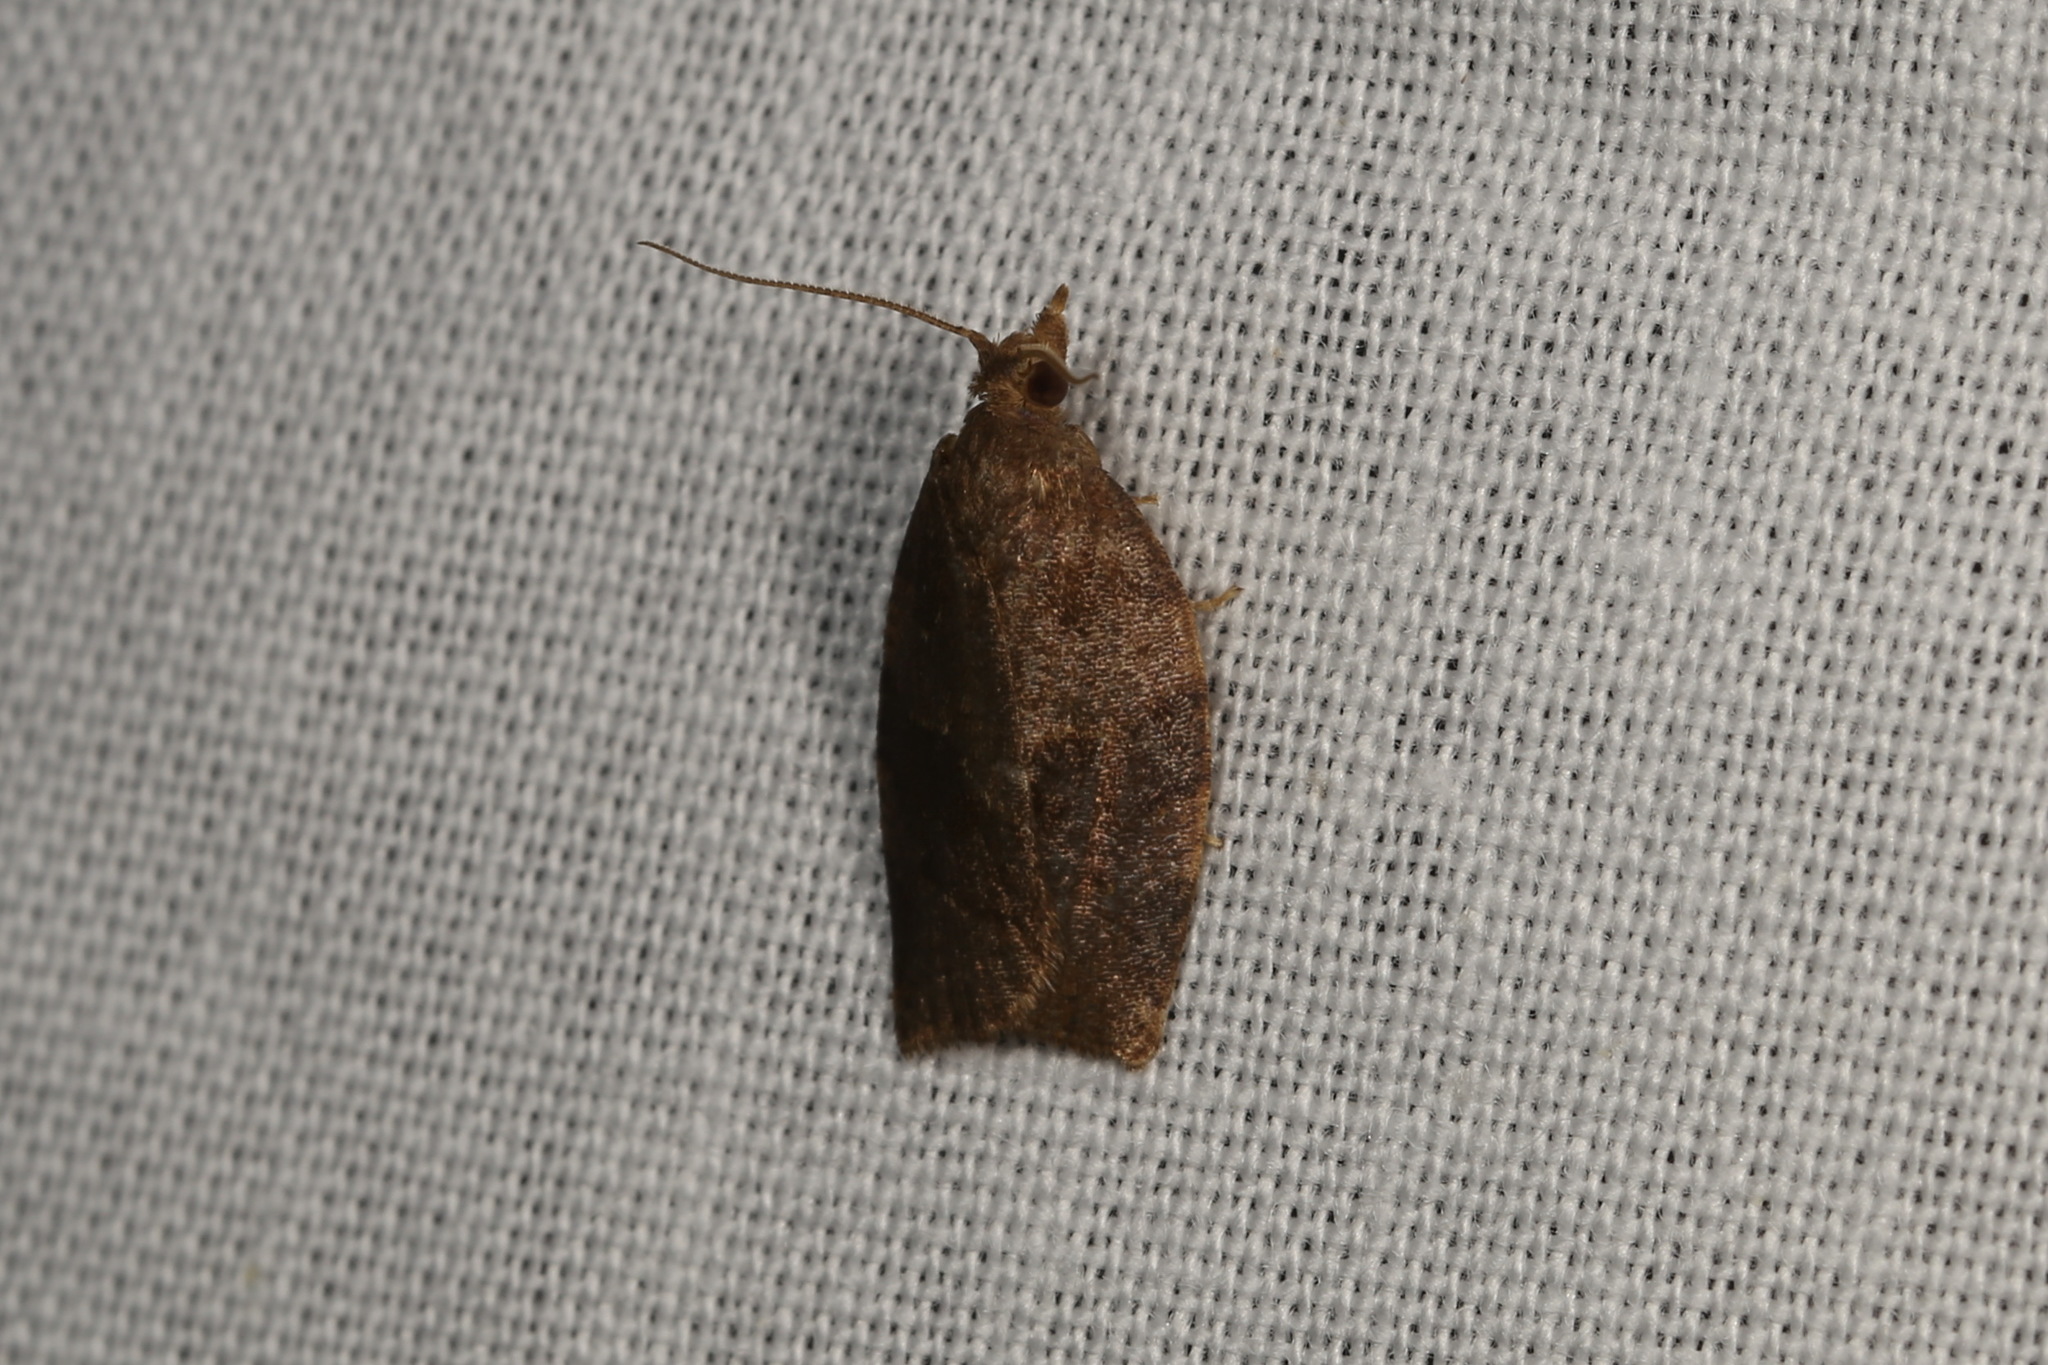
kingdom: Animalia
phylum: Arthropoda
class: Insecta
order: Lepidoptera
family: Tortricidae
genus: Pandemis
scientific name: Pandemis heparana
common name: Dark fruit-tree tortrix
